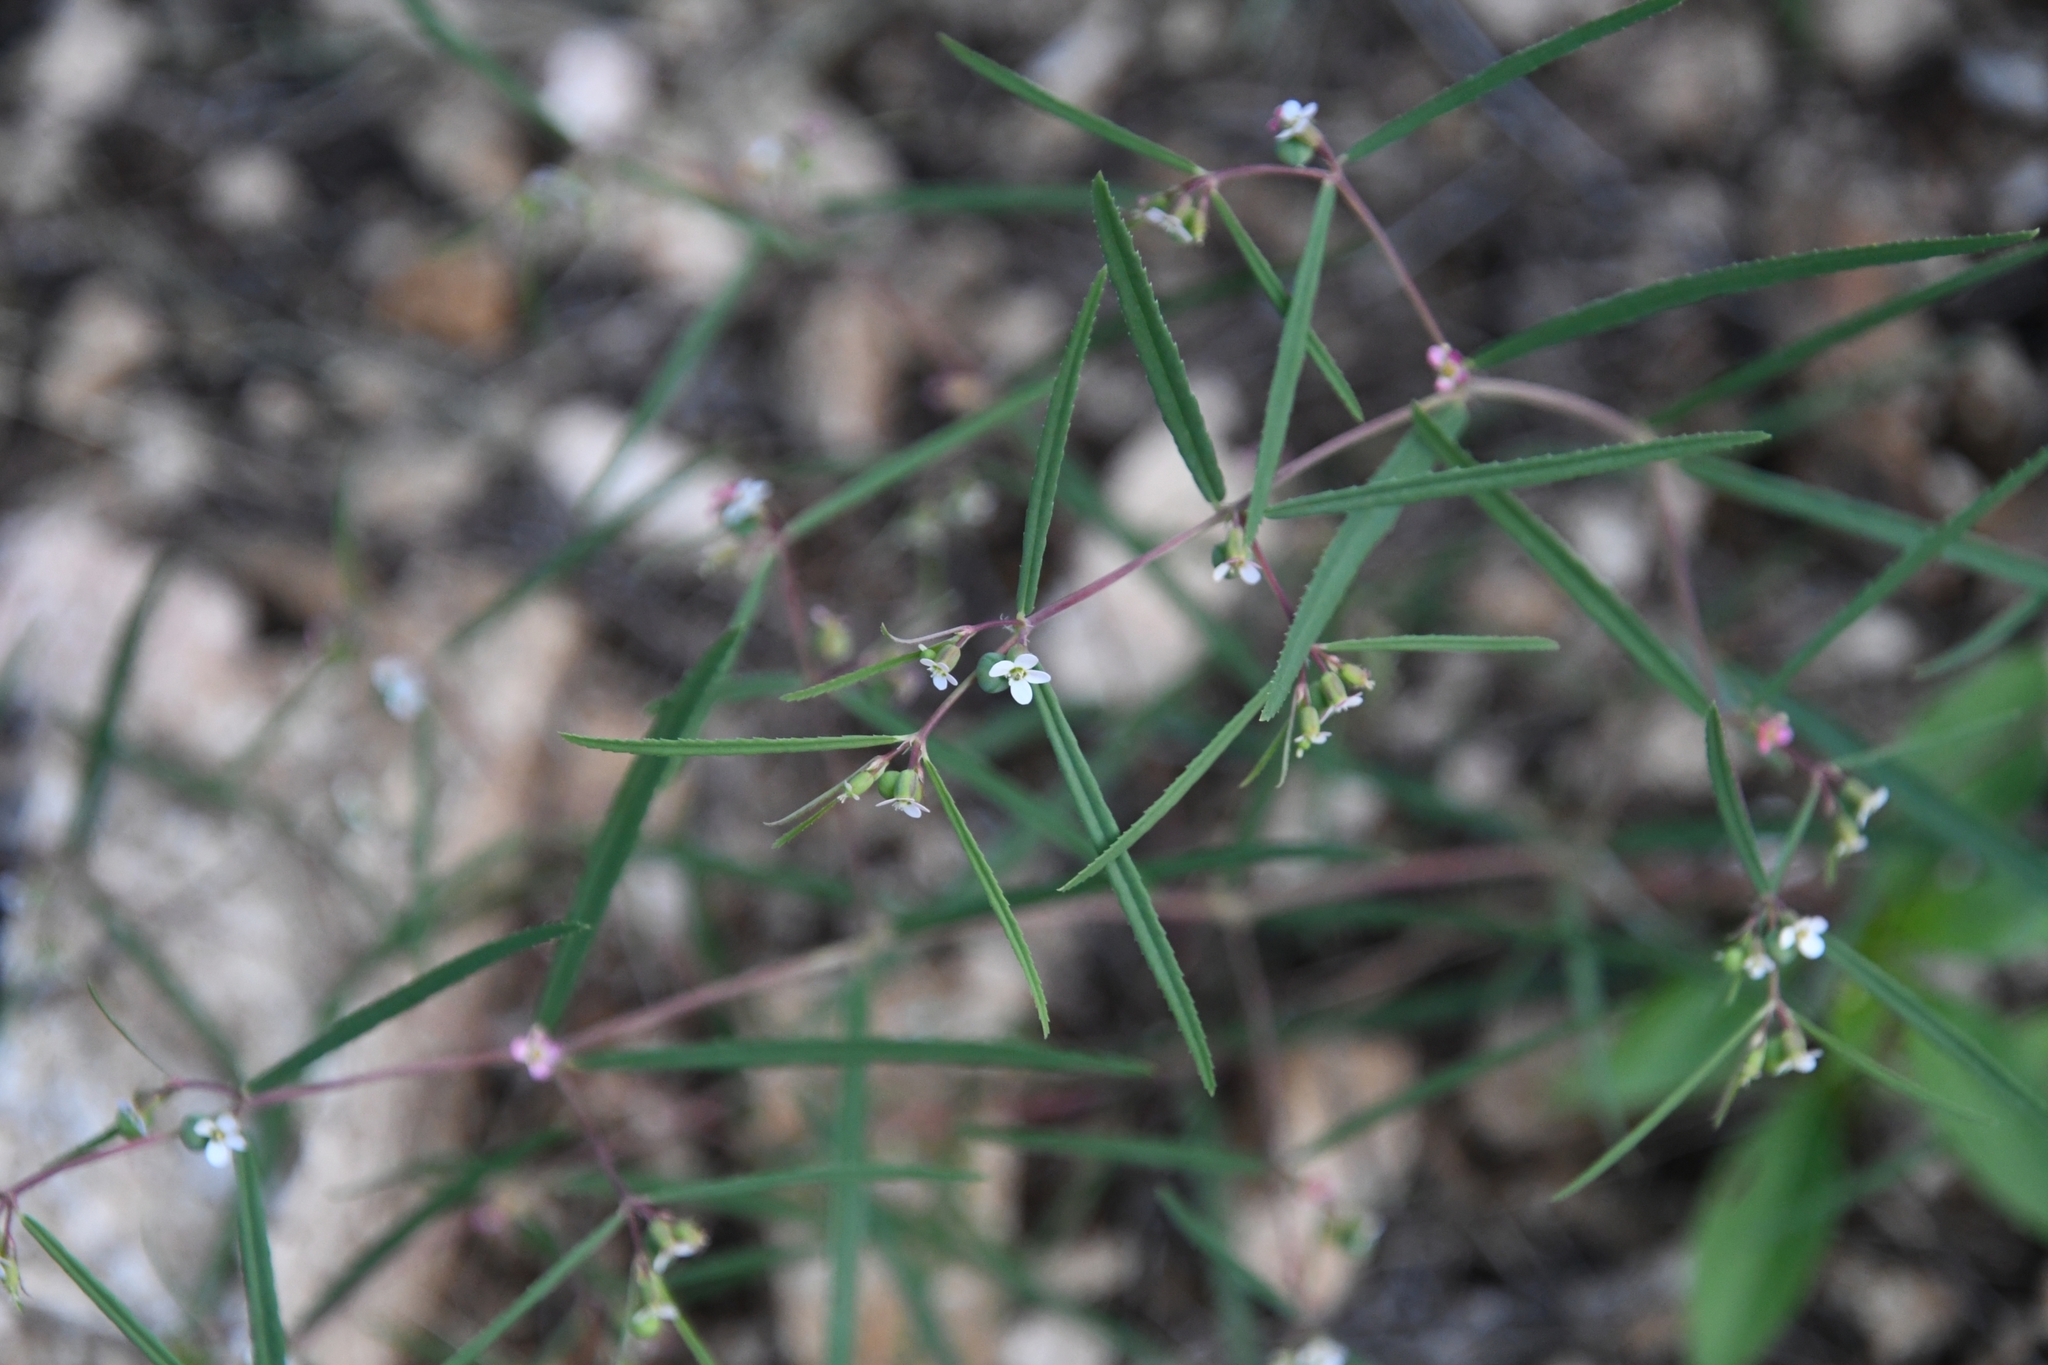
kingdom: Plantae
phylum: Tracheophyta
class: Magnoliopsida
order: Malpighiales
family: Euphorbiaceae
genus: Euphorbia
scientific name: Euphorbia florida
